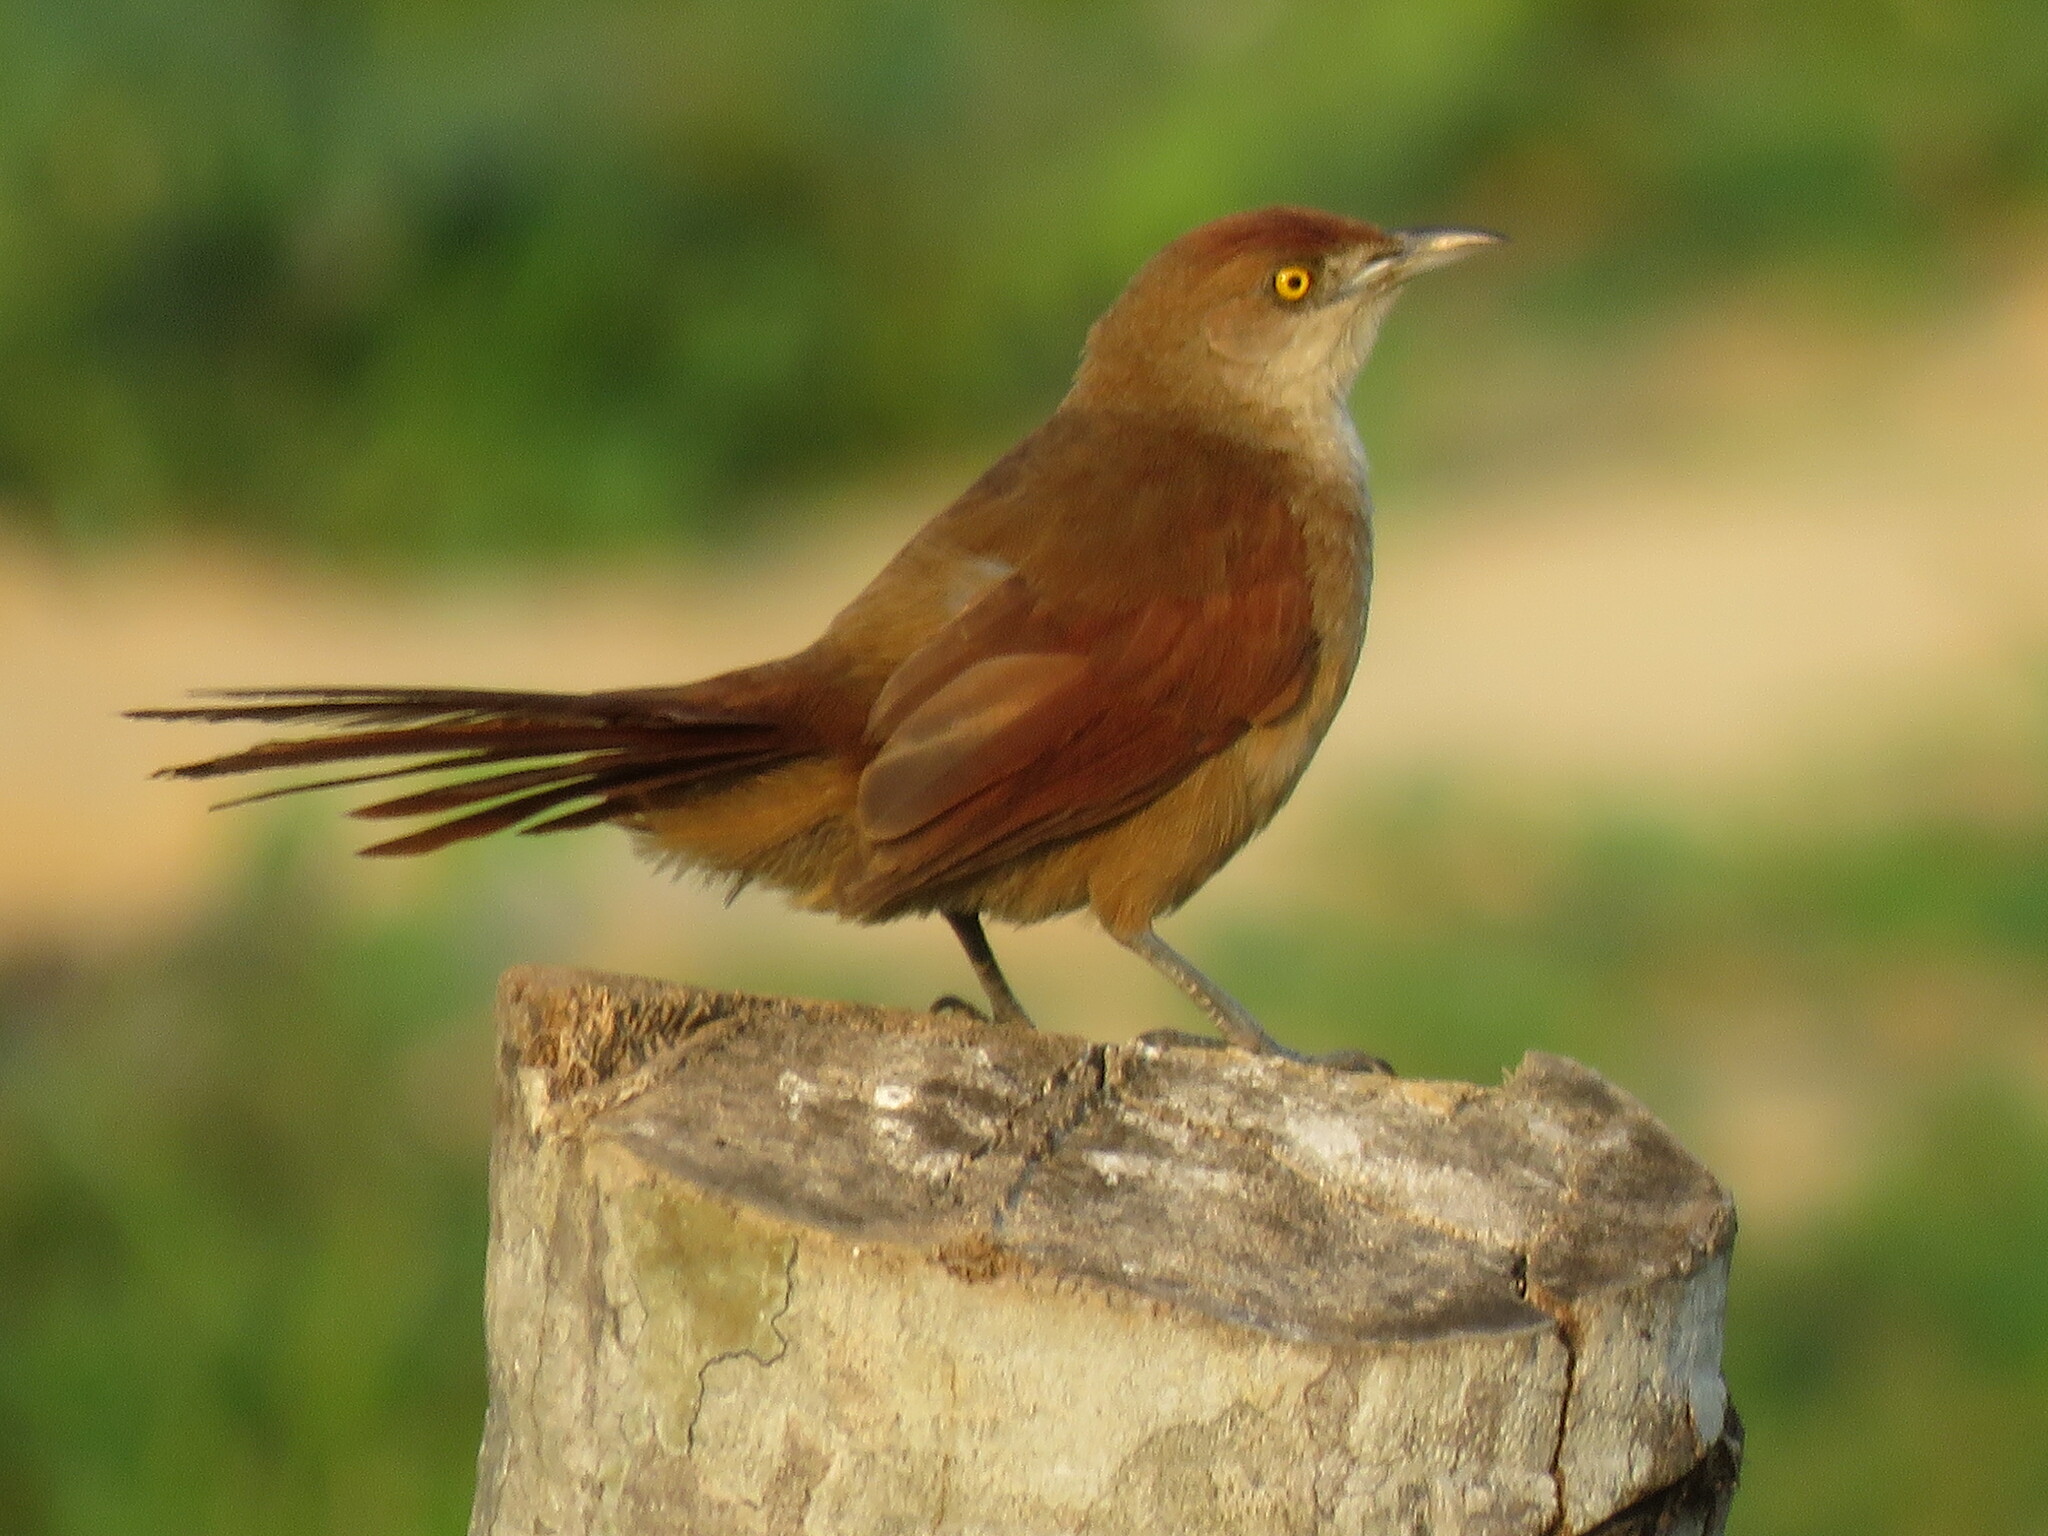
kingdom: Animalia
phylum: Chordata
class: Aves
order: Passeriformes
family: Furnariidae
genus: Phacellodomus
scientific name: Phacellodomus ruber
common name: Greater thornbird
